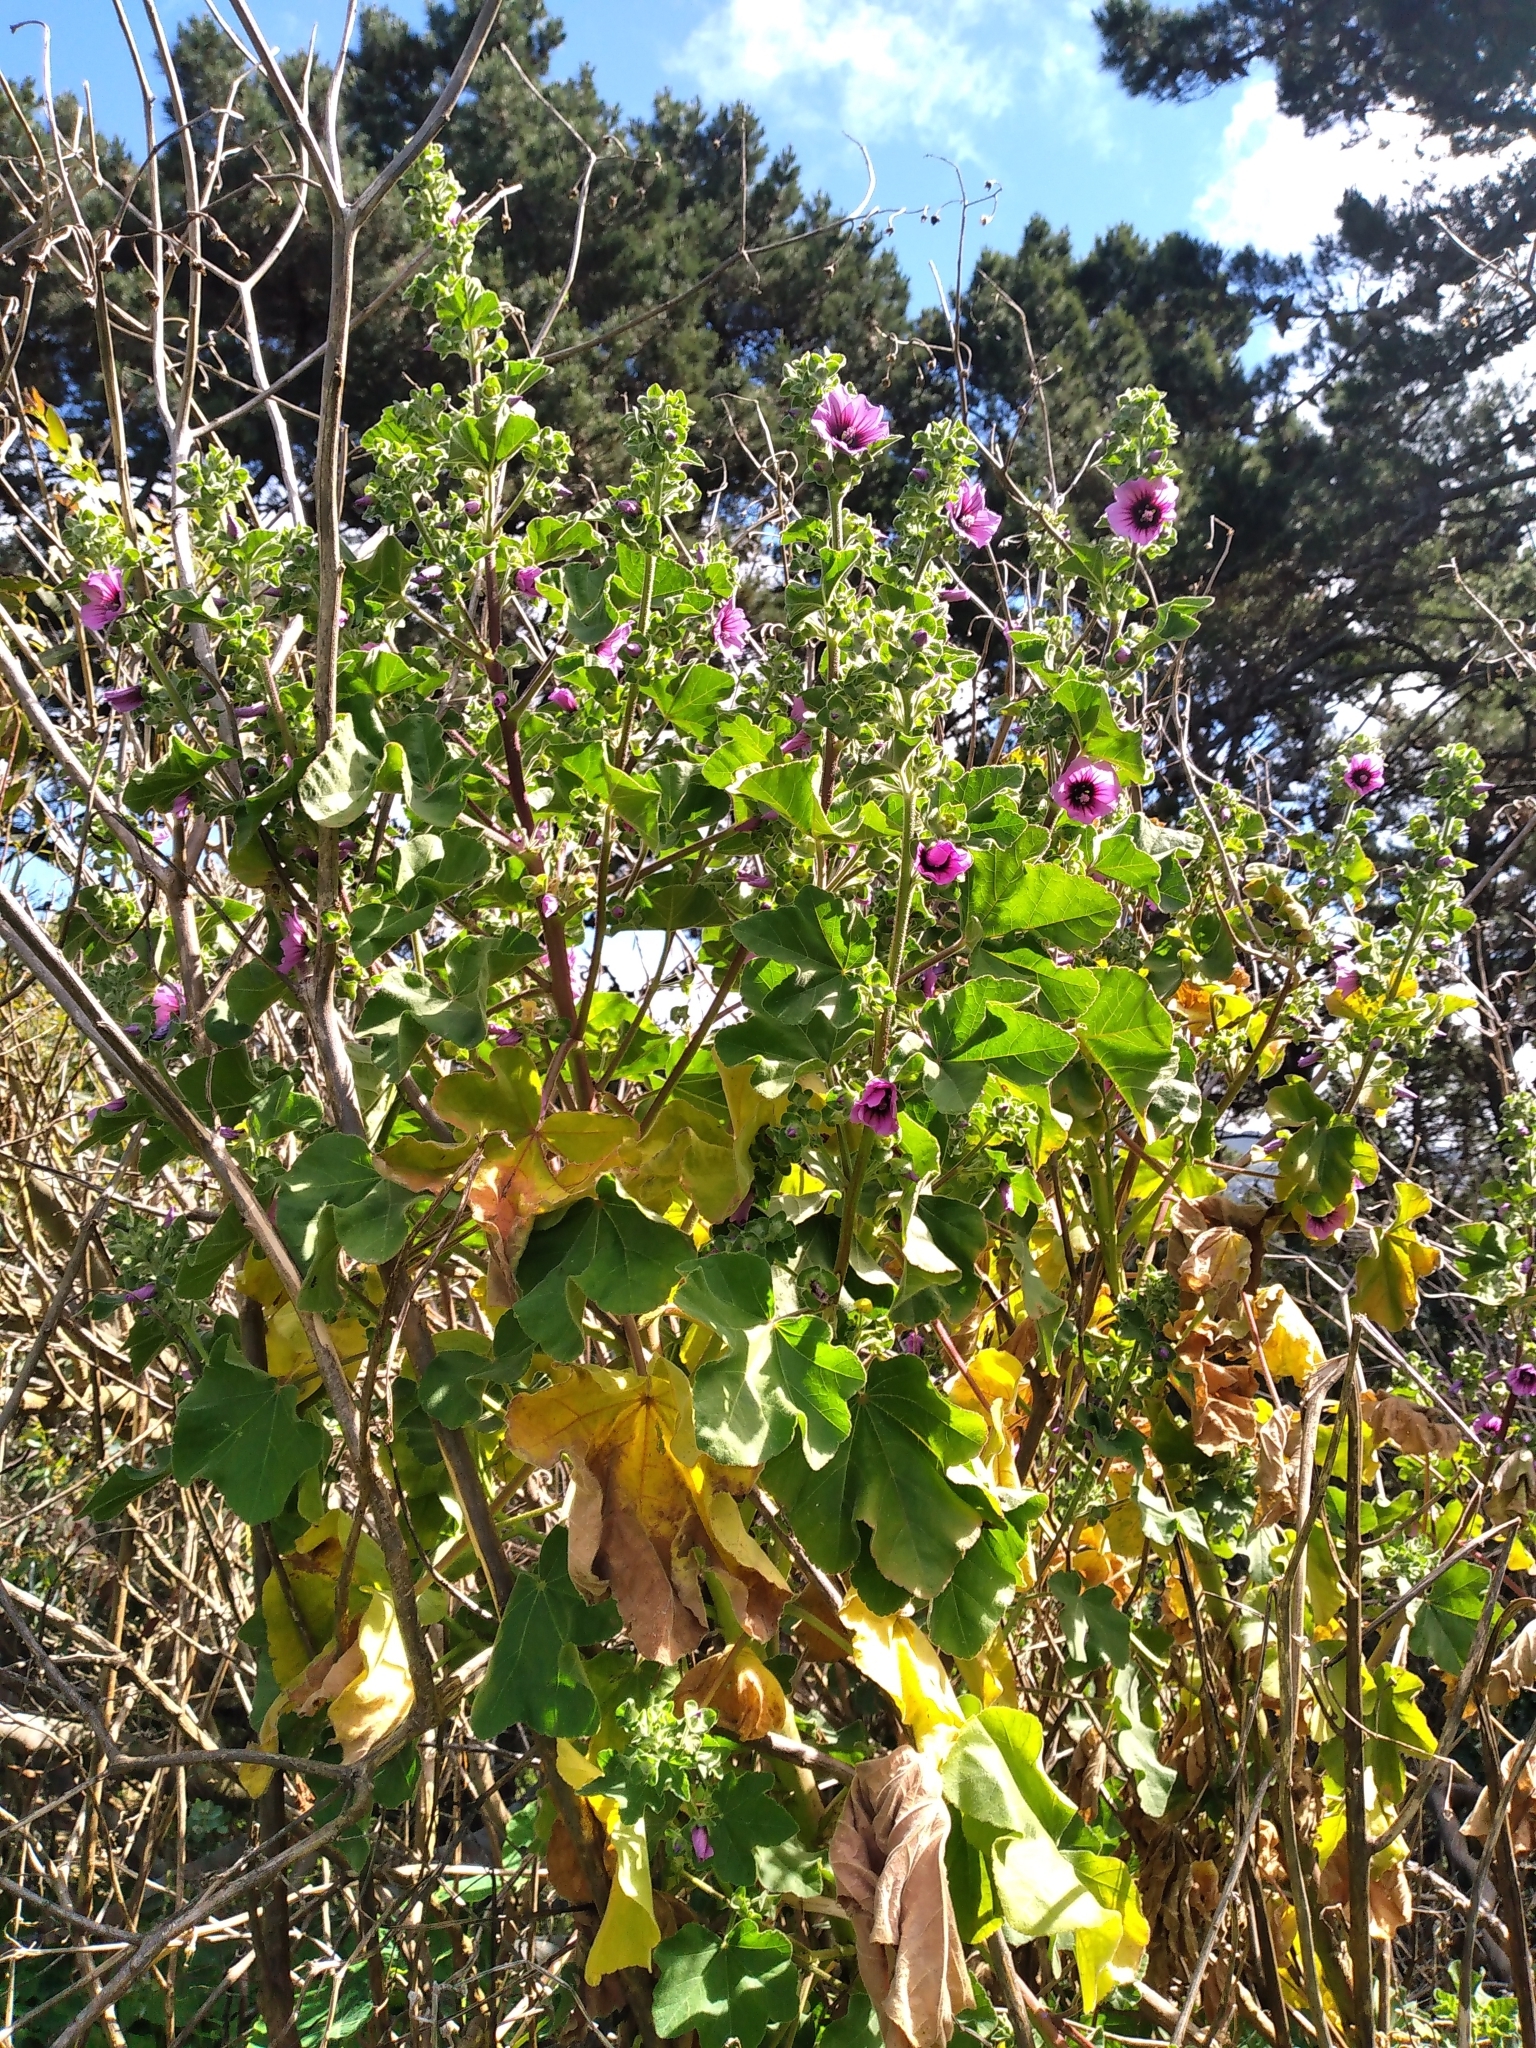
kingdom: Plantae
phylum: Tracheophyta
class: Magnoliopsida
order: Malvales
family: Malvaceae
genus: Malva
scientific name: Malva arborea
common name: Tree mallow
